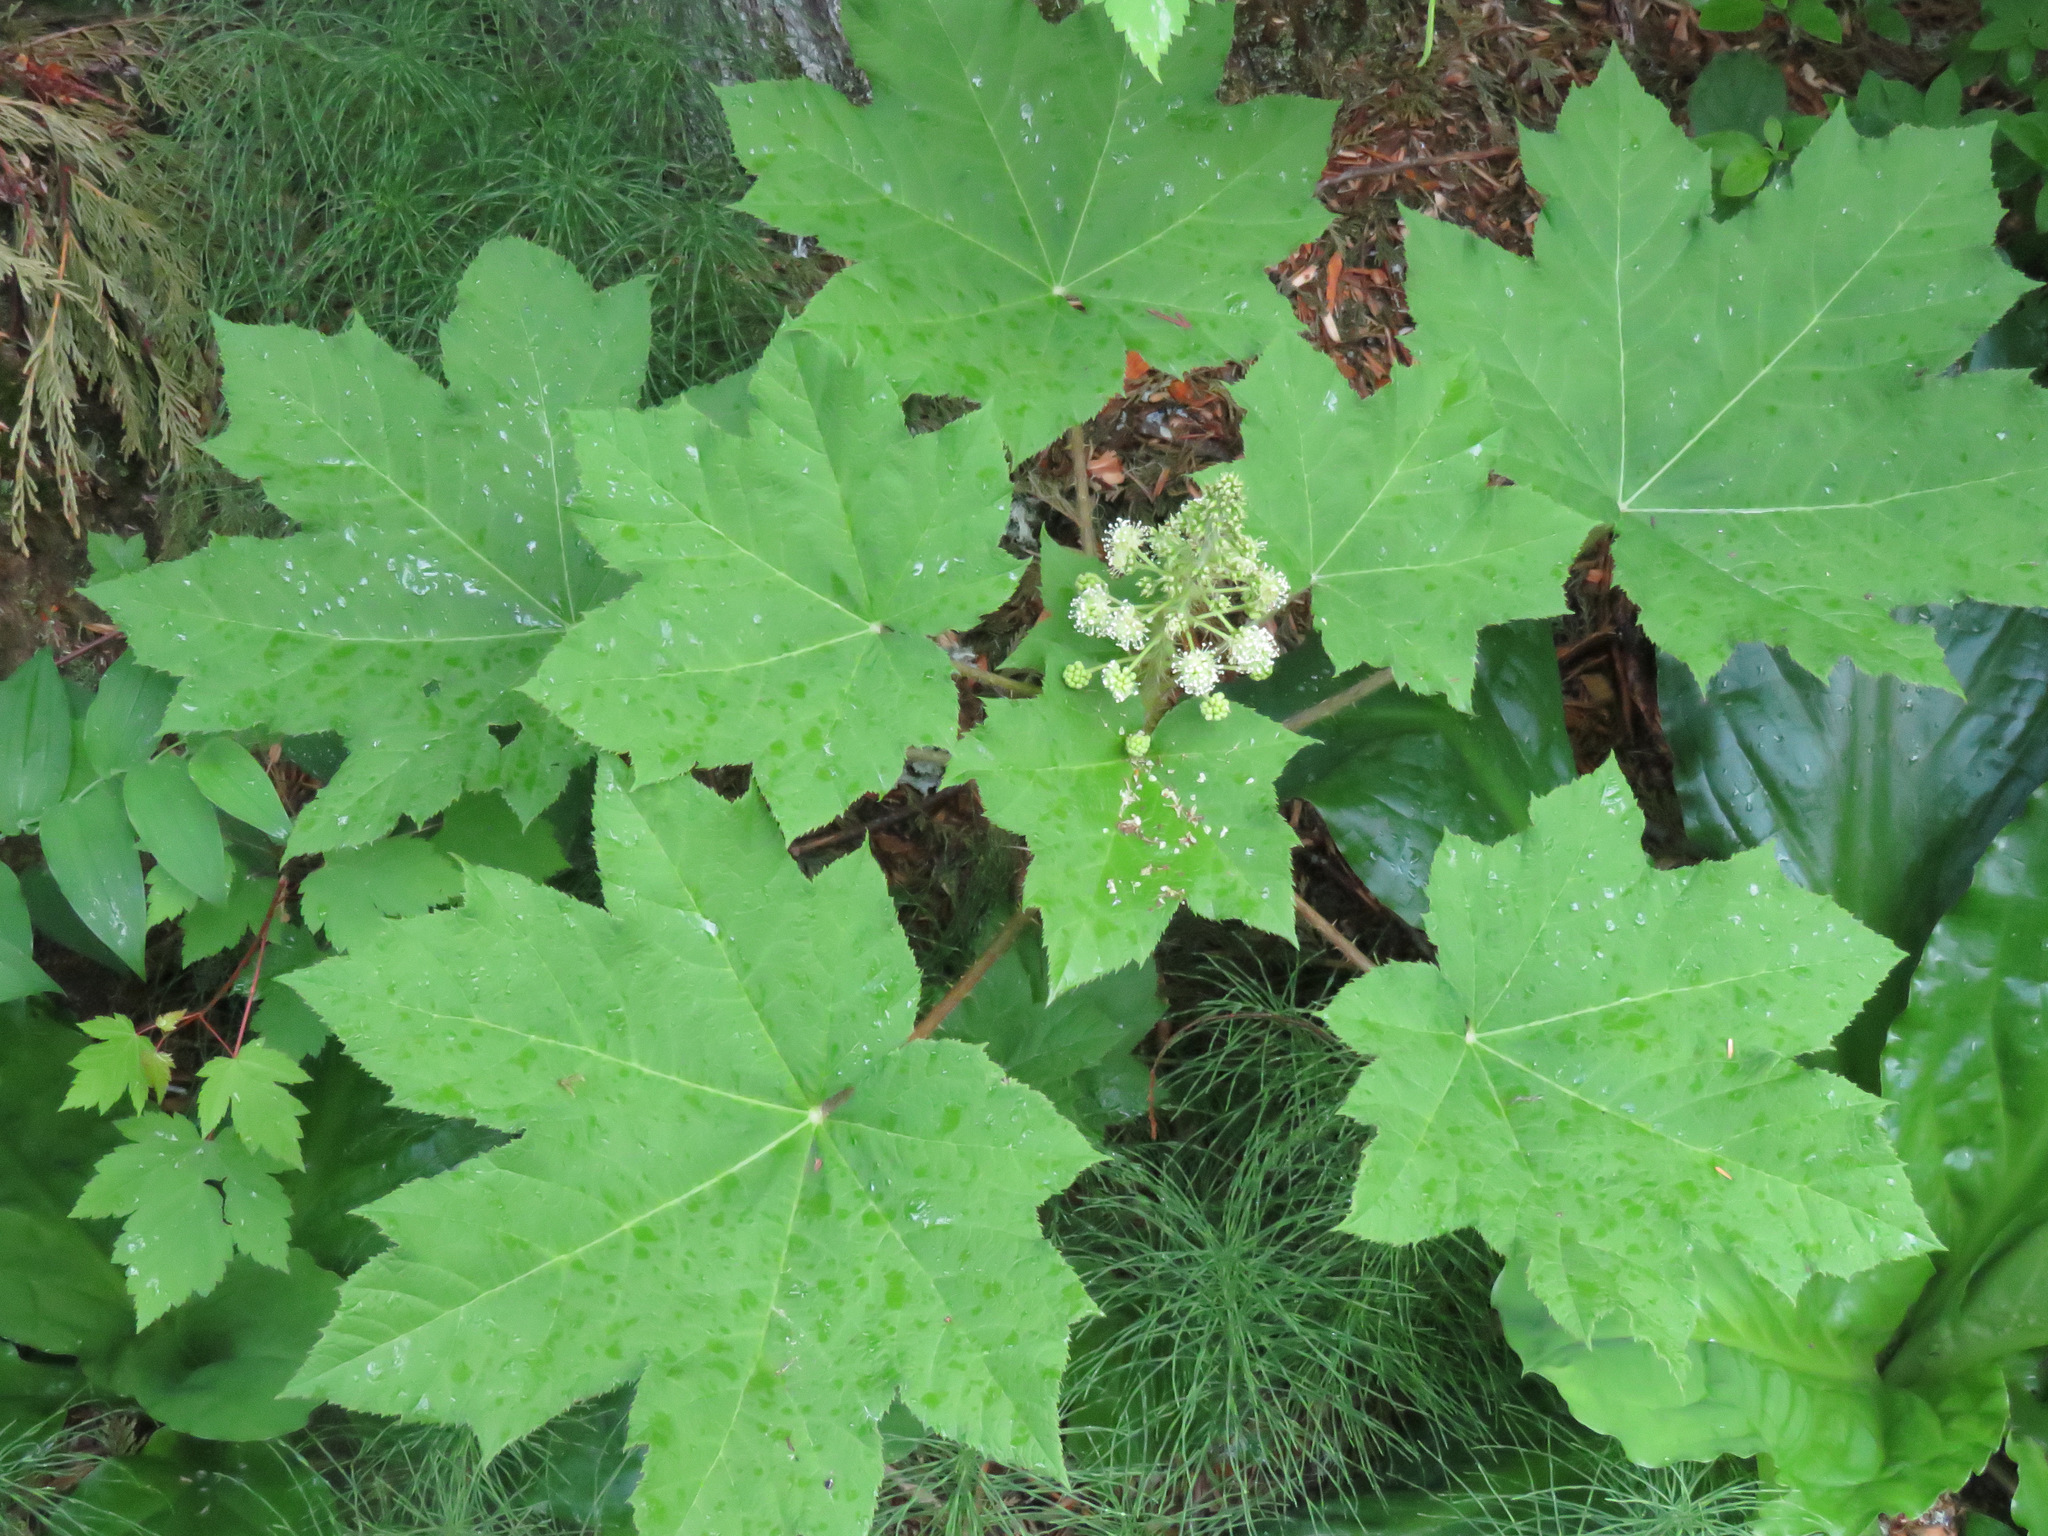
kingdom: Plantae
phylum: Tracheophyta
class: Magnoliopsida
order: Apiales
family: Araliaceae
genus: Oplopanax
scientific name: Oplopanax horridus
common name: Devil's walking-stick
